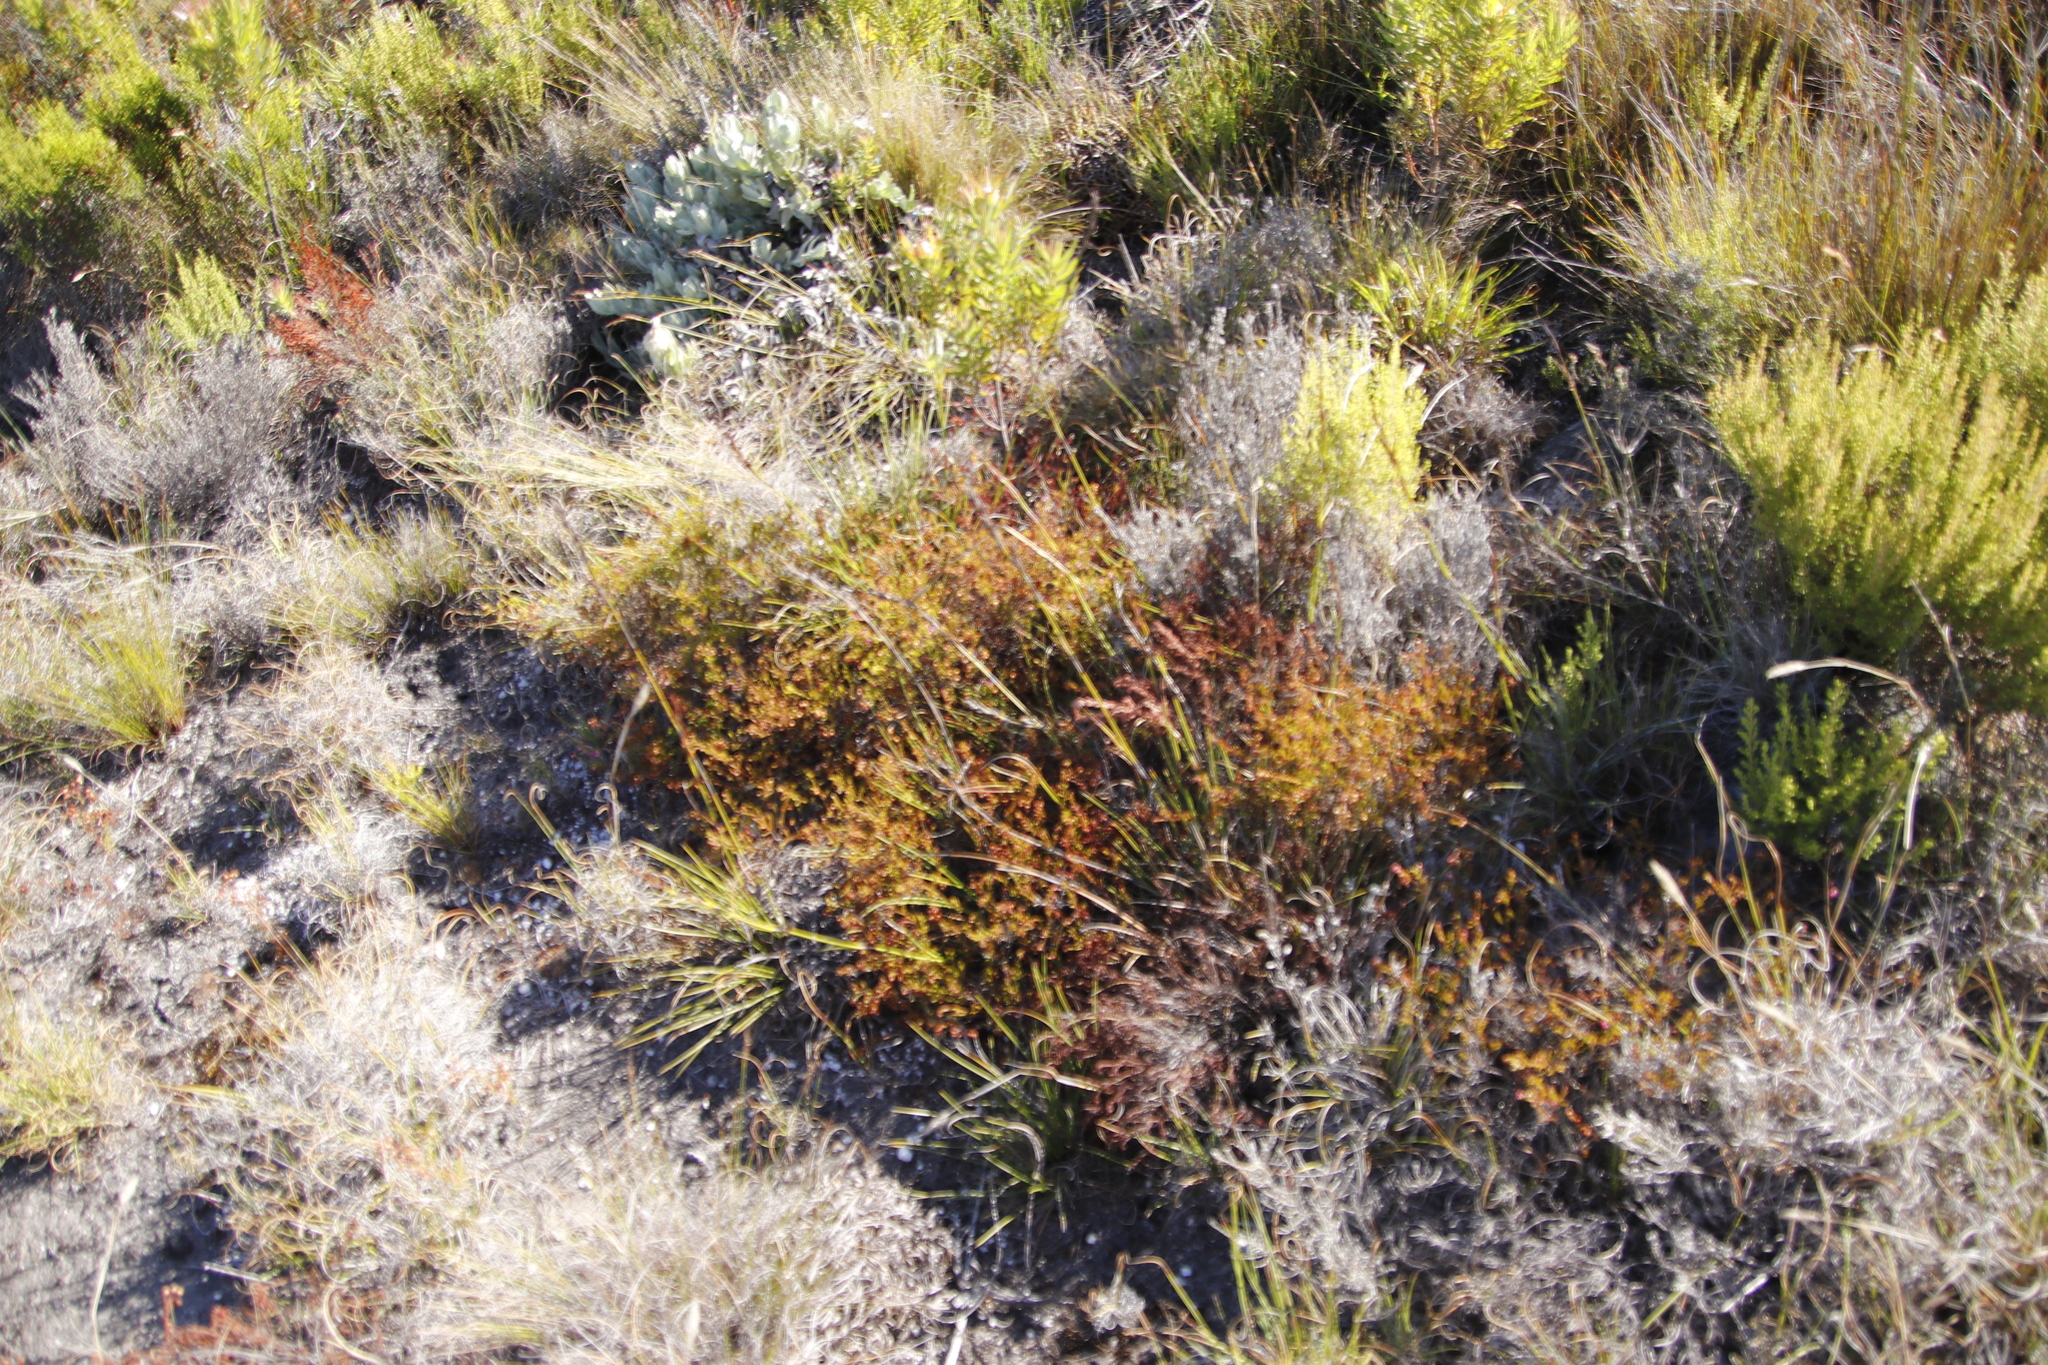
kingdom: Plantae
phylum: Tracheophyta
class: Magnoliopsida
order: Ericales
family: Ericaceae
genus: Erica
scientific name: Erica multumbellifera
